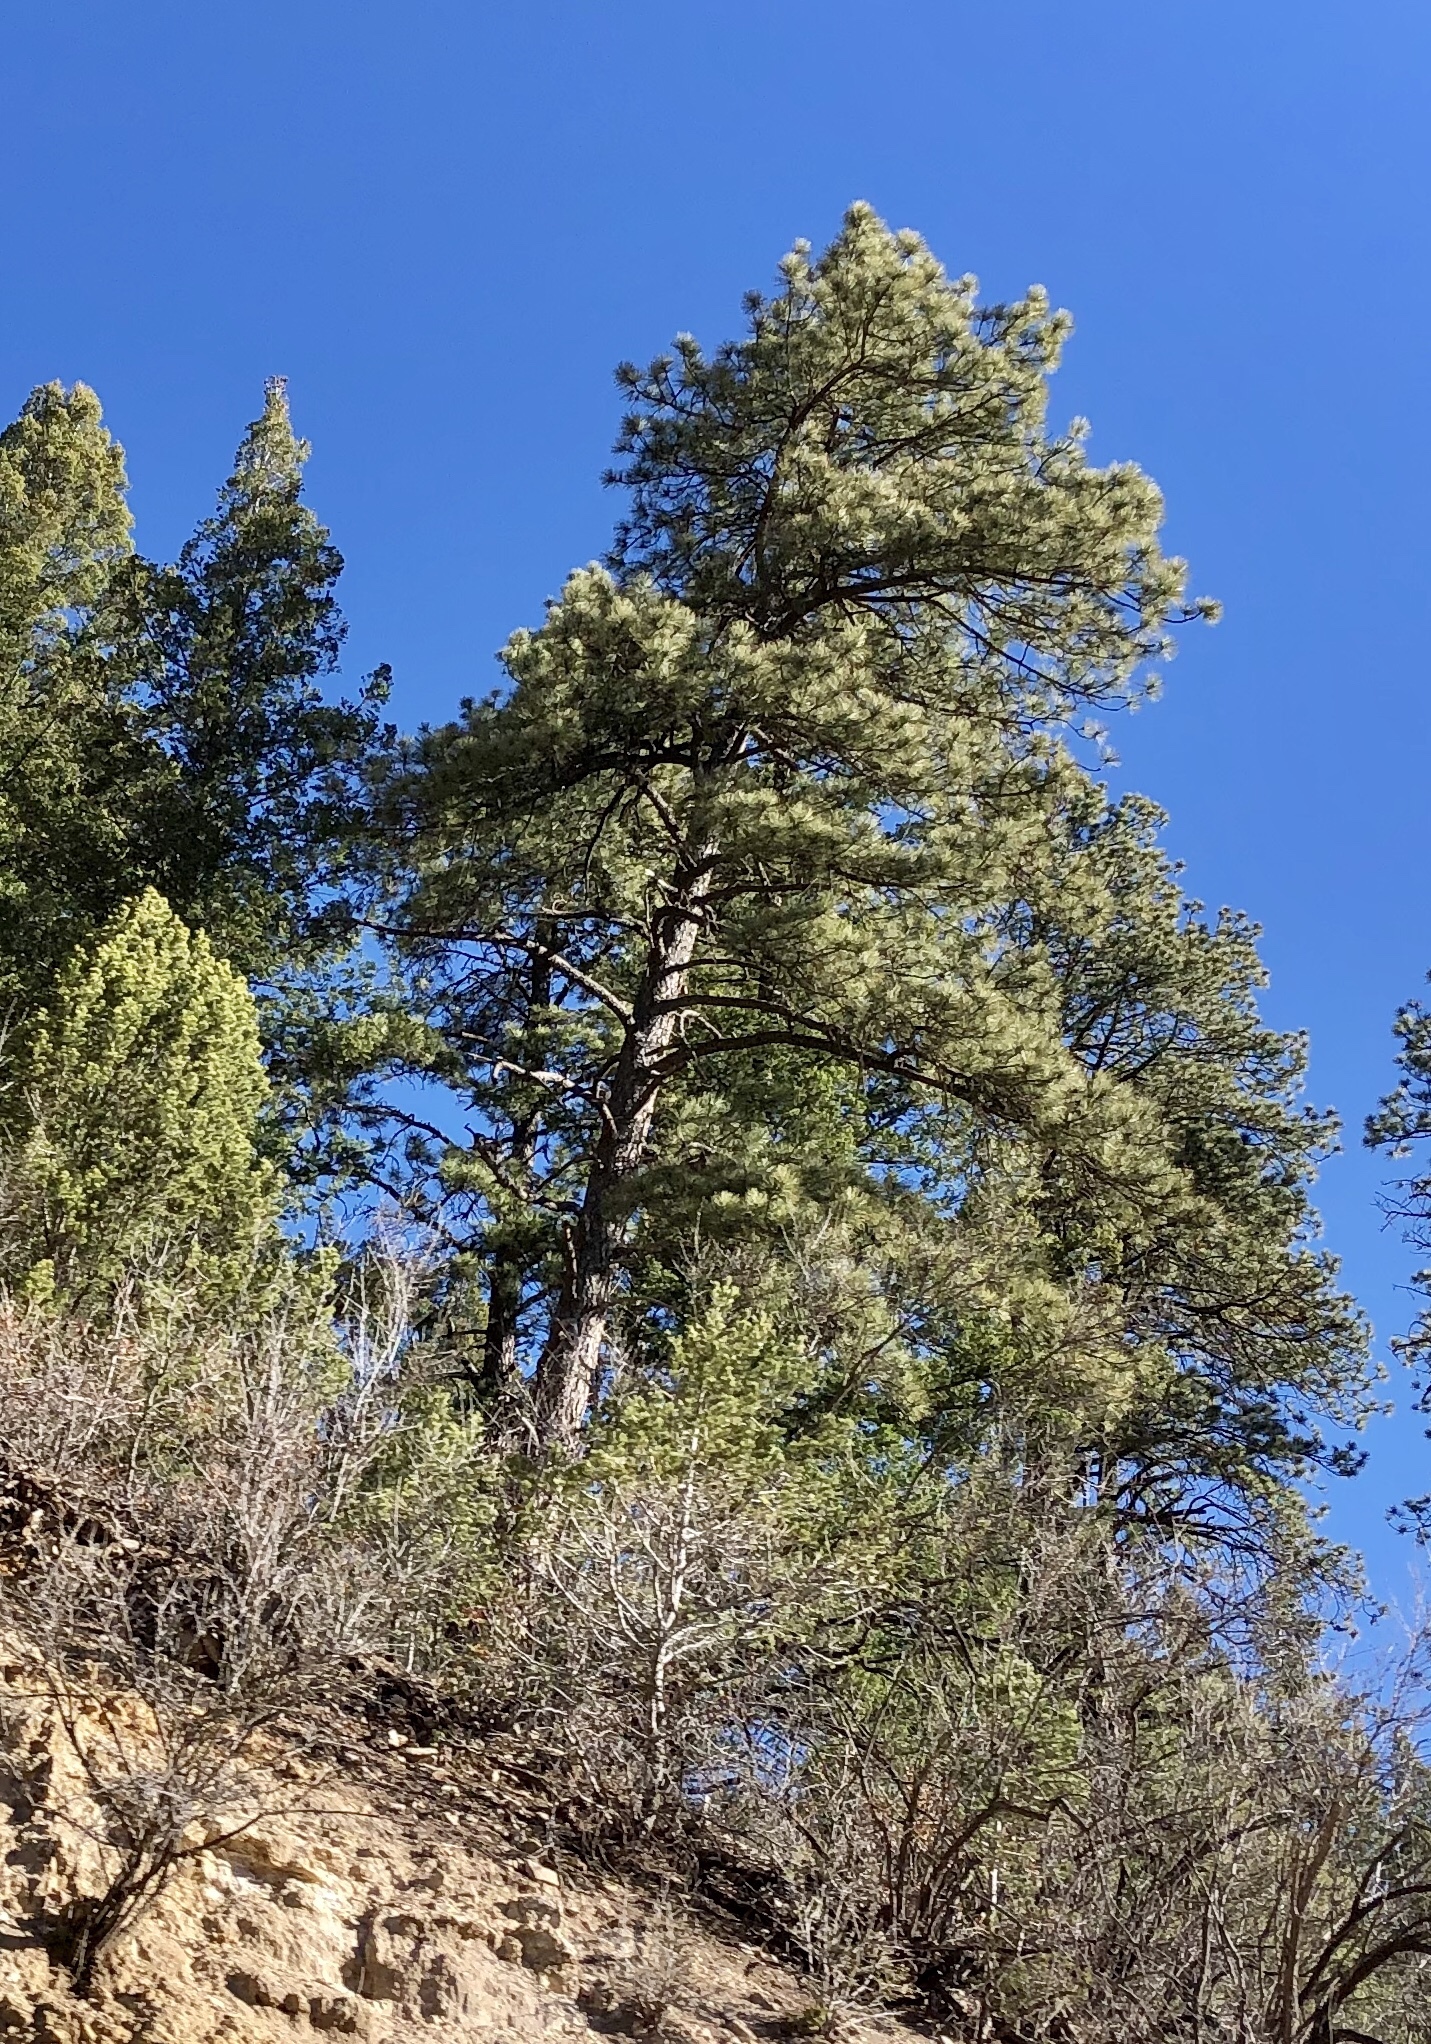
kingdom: Plantae
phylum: Tracheophyta
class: Pinopsida
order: Pinales
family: Pinaceae
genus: Pinus
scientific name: Pinus ponderosa
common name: Western yellow-pine
